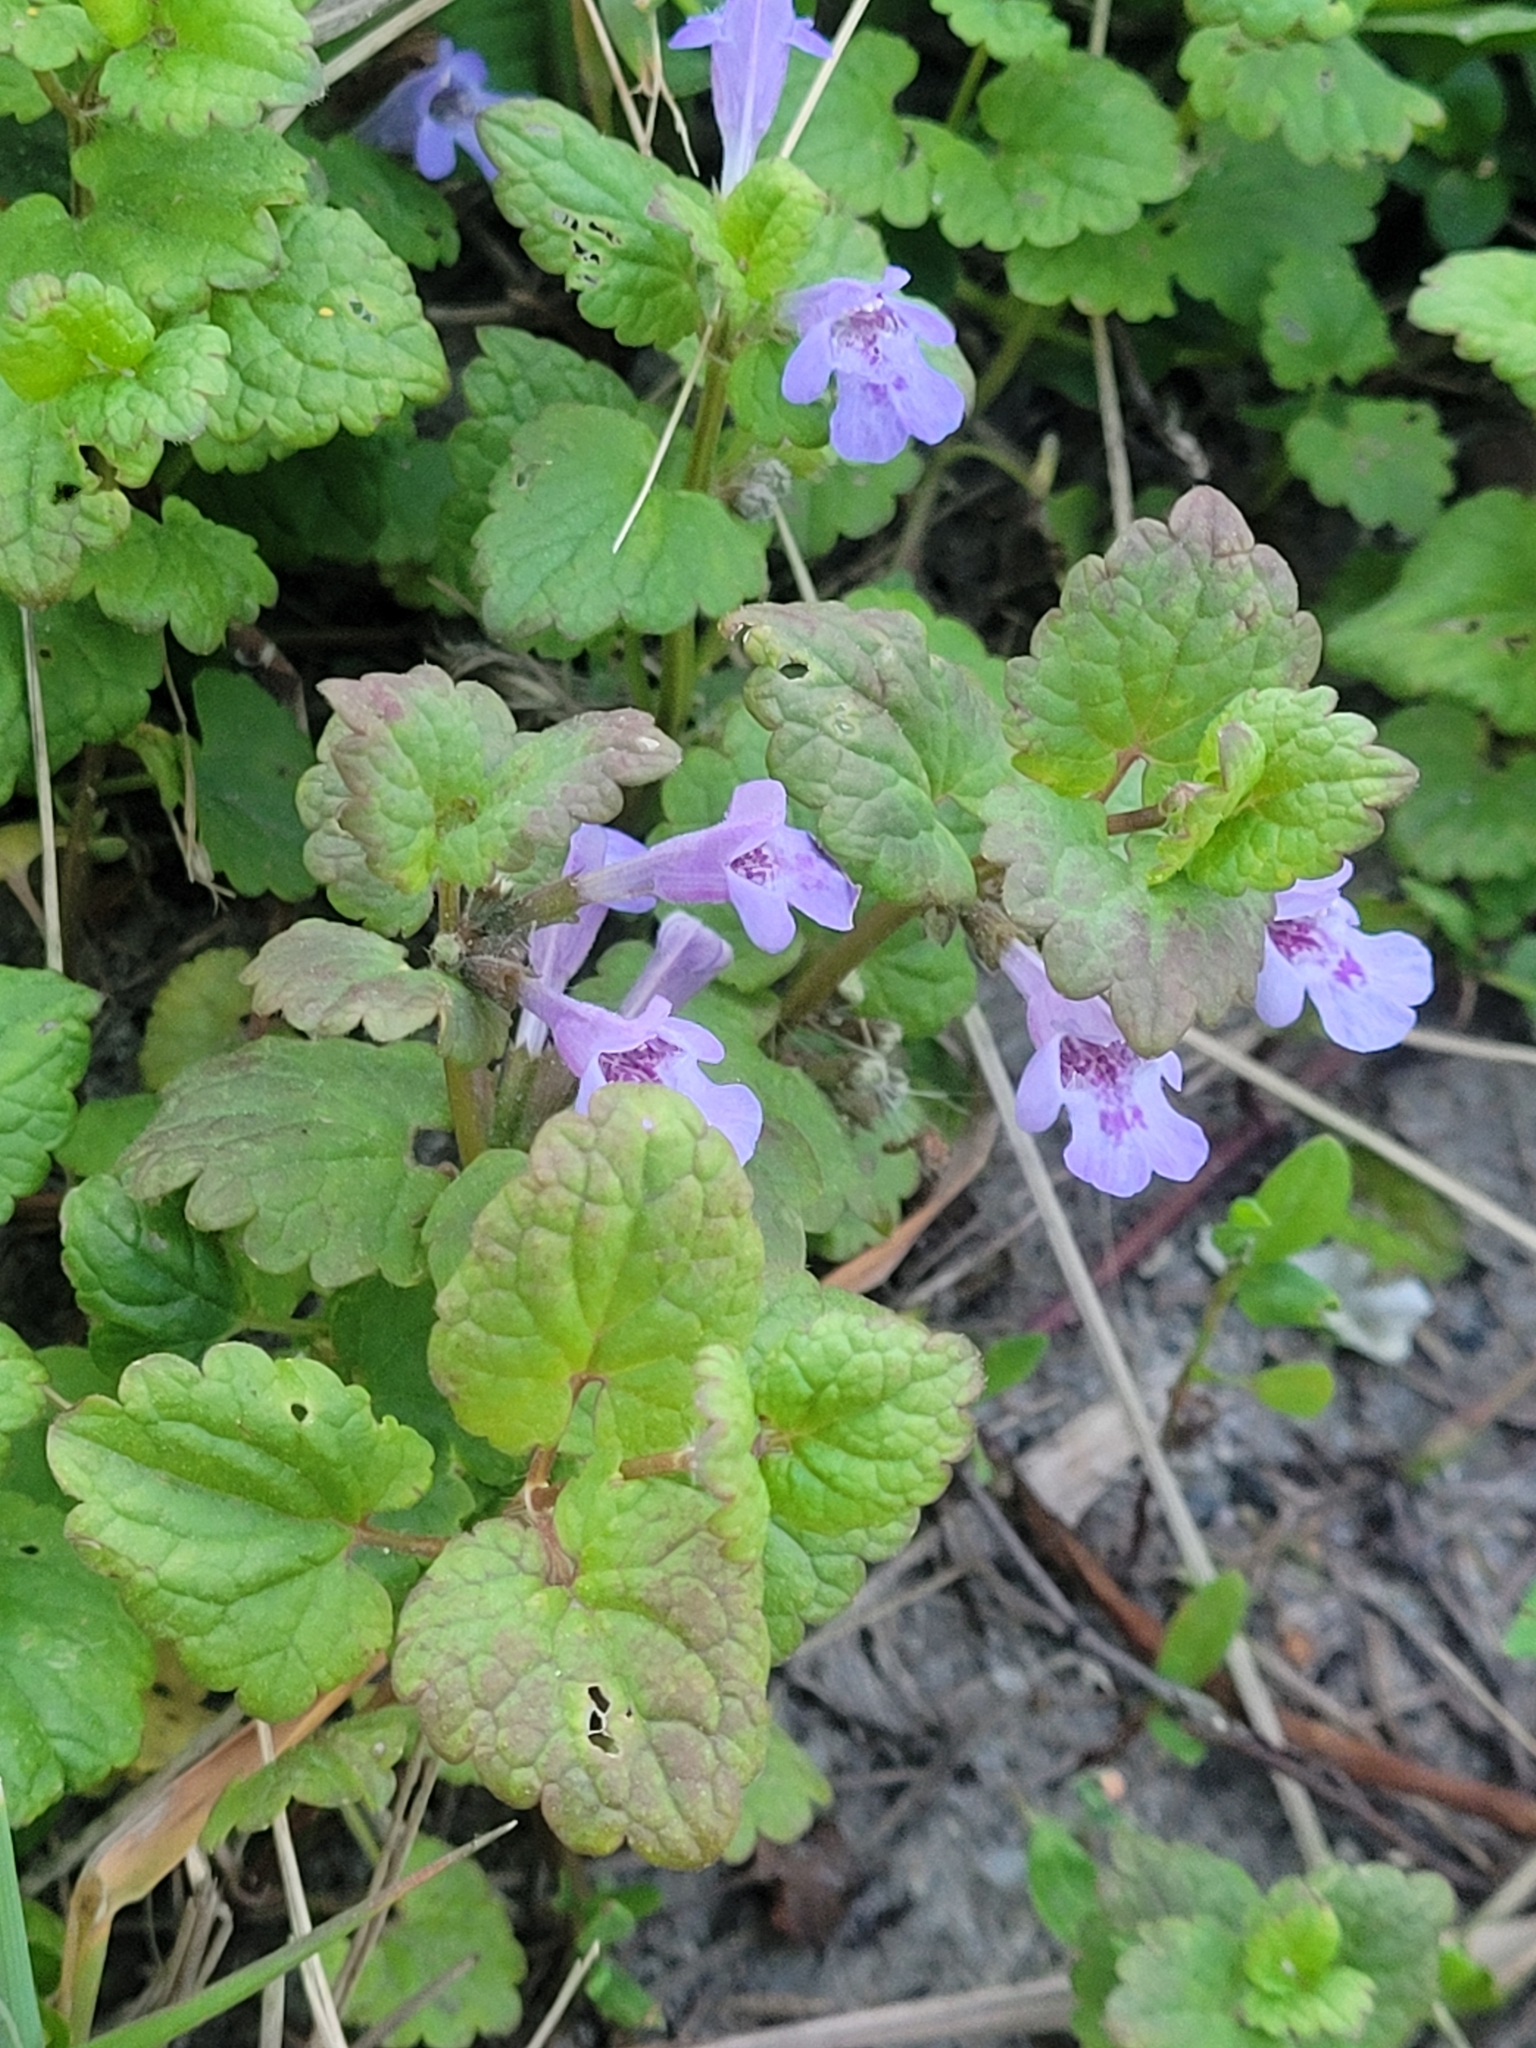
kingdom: Plantae
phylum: Tracheophyta
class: Magnoliopsida
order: Lamiales
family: Lamiaceae
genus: Glechoma
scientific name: Glechoma hederacea
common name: Ground ivy
